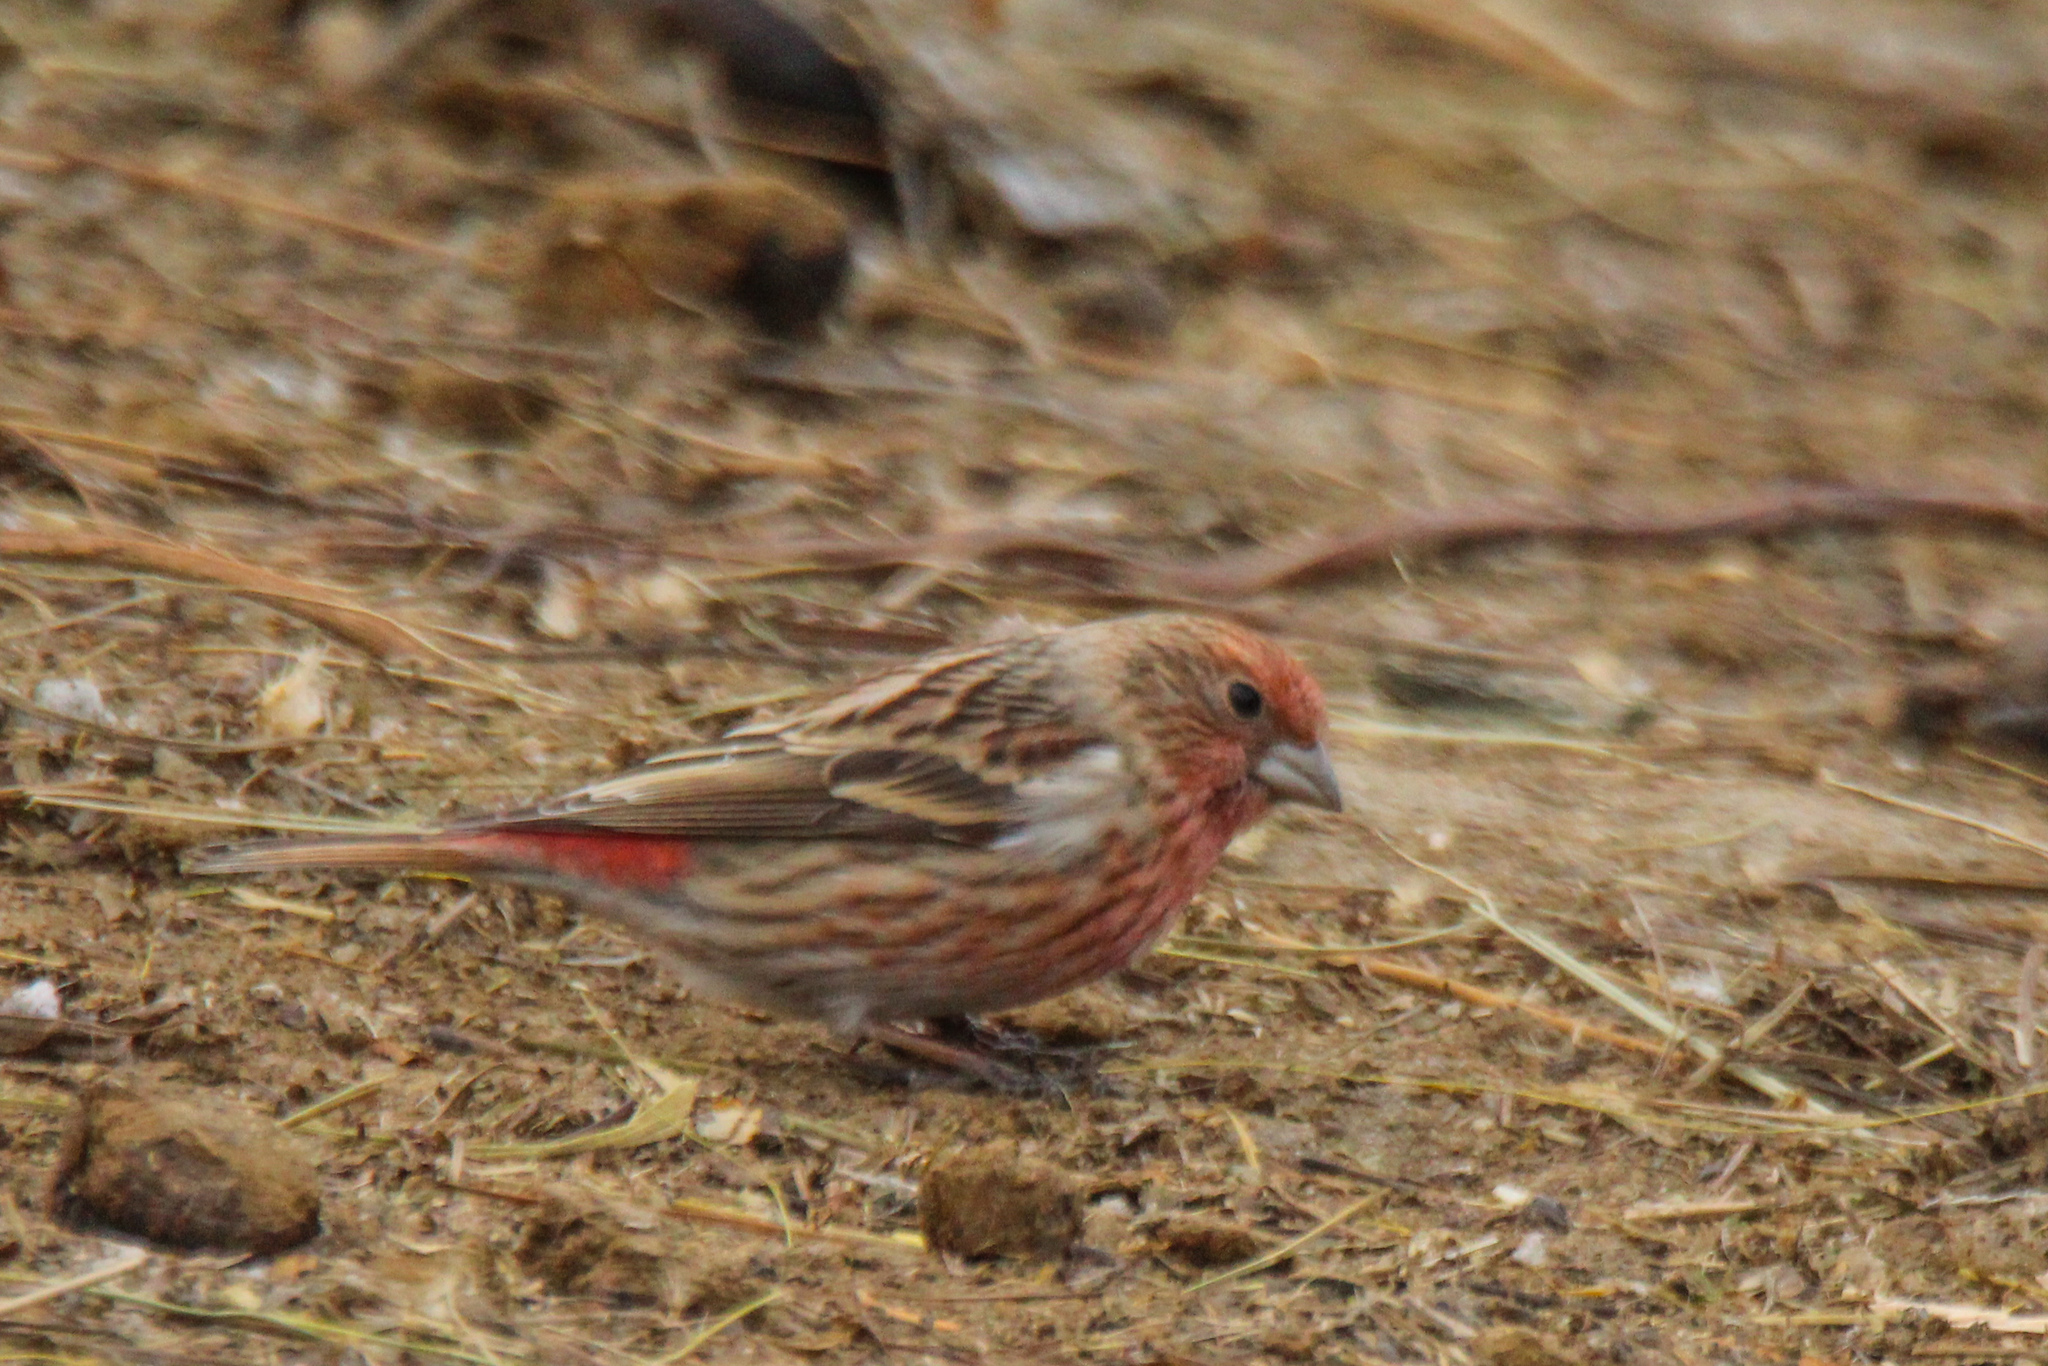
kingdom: Animalia
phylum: Chordata
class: Aves
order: Passeriformes
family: Fringillidae
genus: Carpodacus
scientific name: Carpodacus roseus
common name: Pallas's rosefinch
